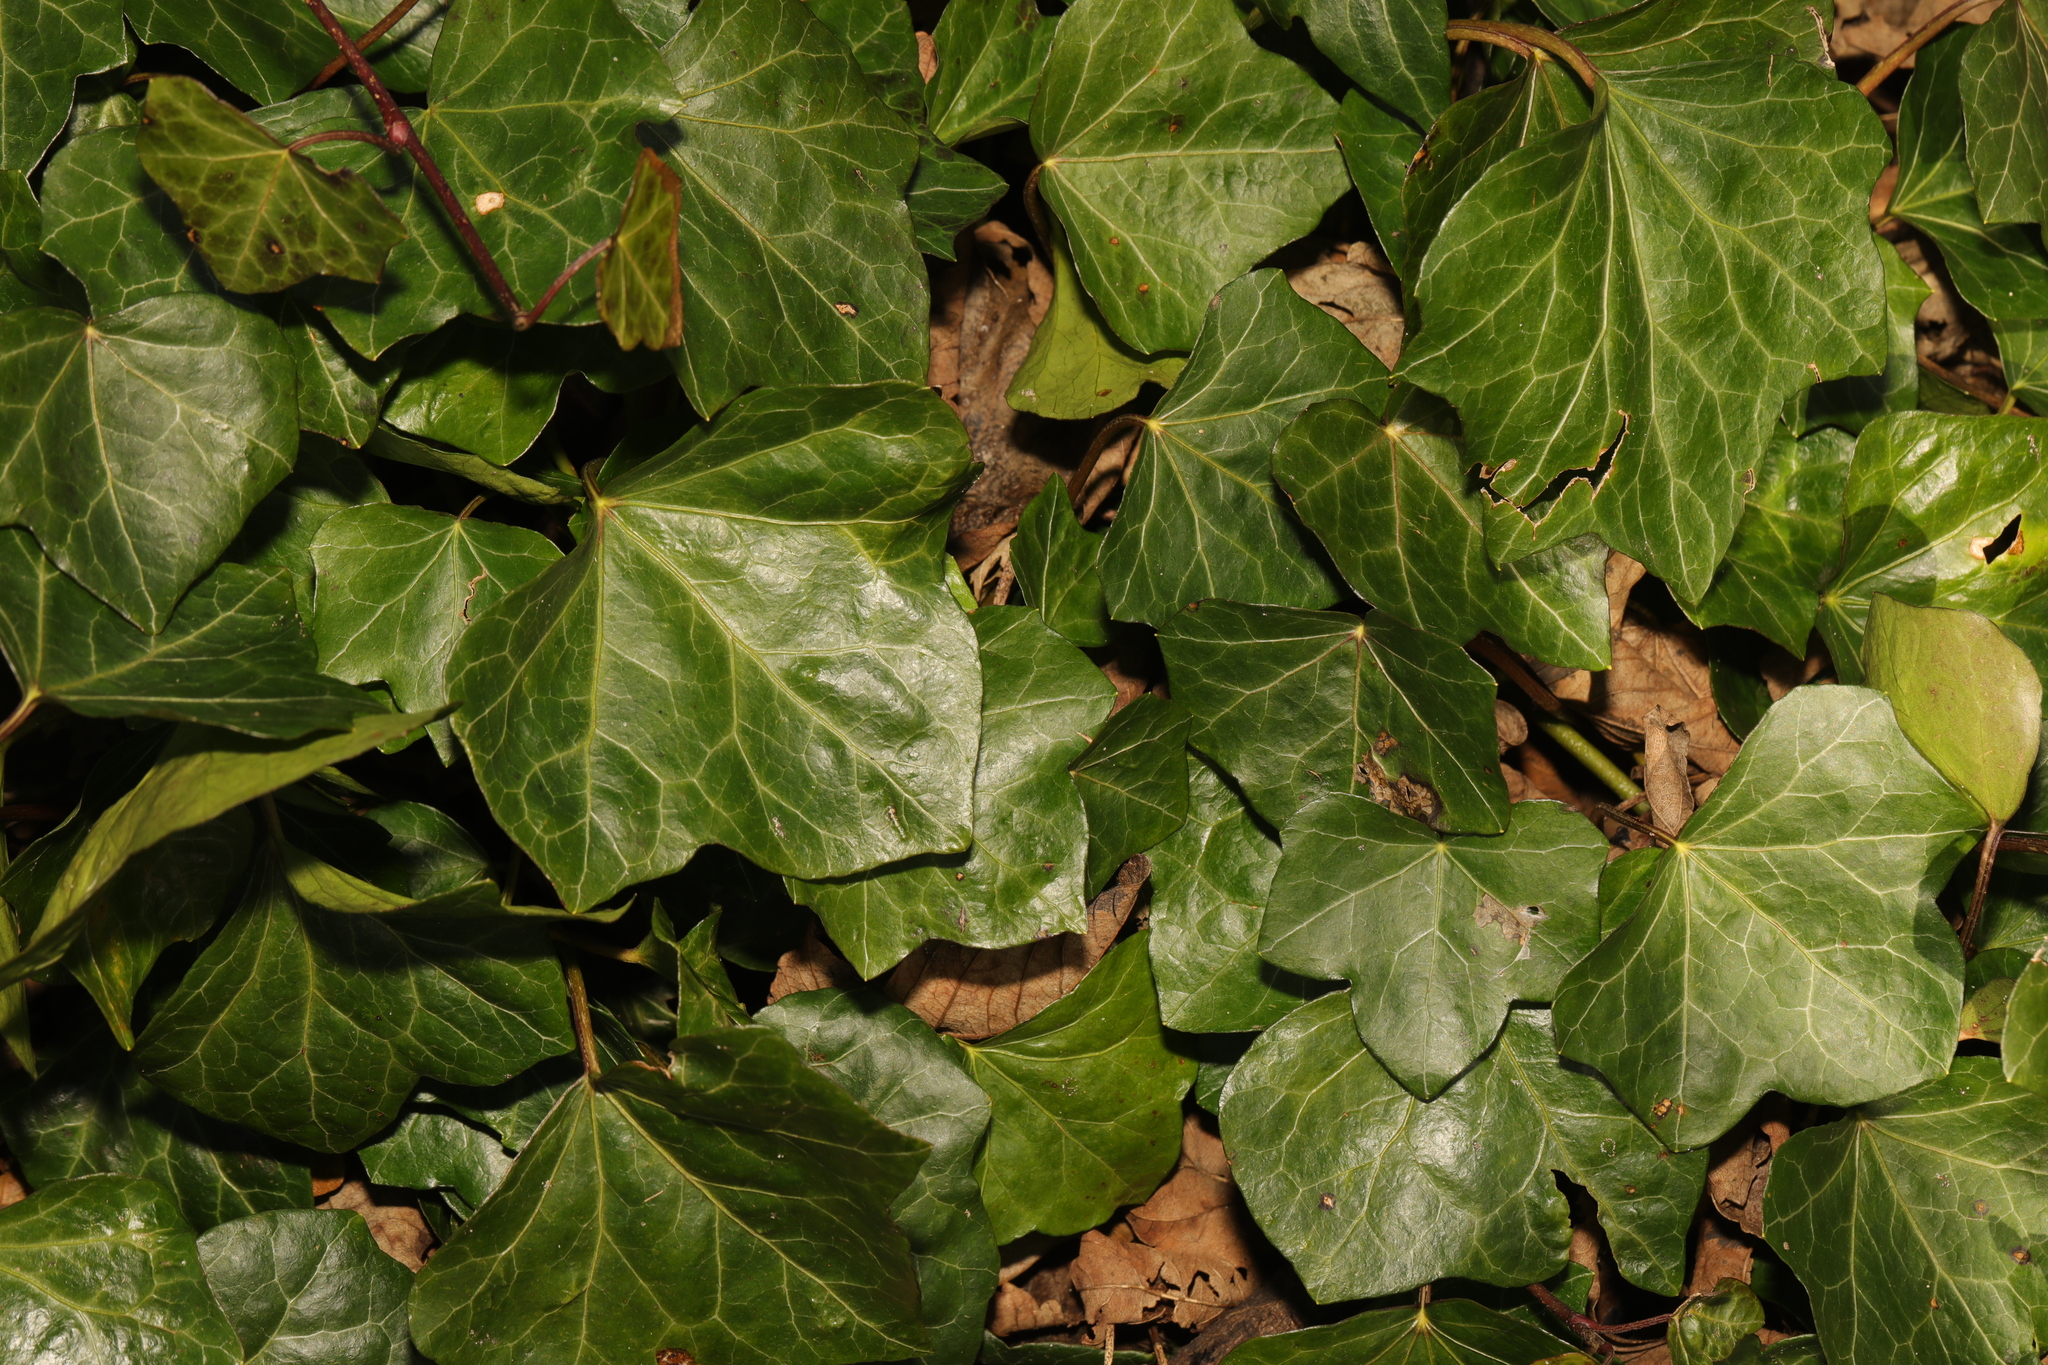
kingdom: Plantae
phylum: Tracheophyta
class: Magnoliopsida
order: Apiales
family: Araliaceae
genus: Hedera
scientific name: Hedera helix
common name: Ivy
